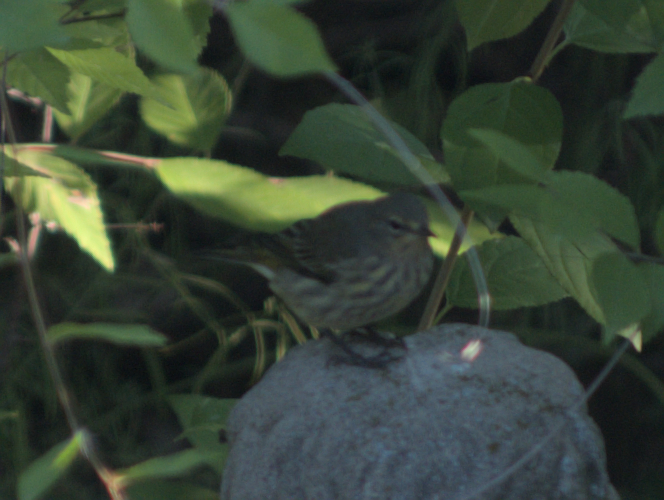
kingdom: Animalia
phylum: Chordata
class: Aves
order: Passeriformes
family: Parulidae
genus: Setophaga
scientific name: Setophaga palmarum
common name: Palm warbler
